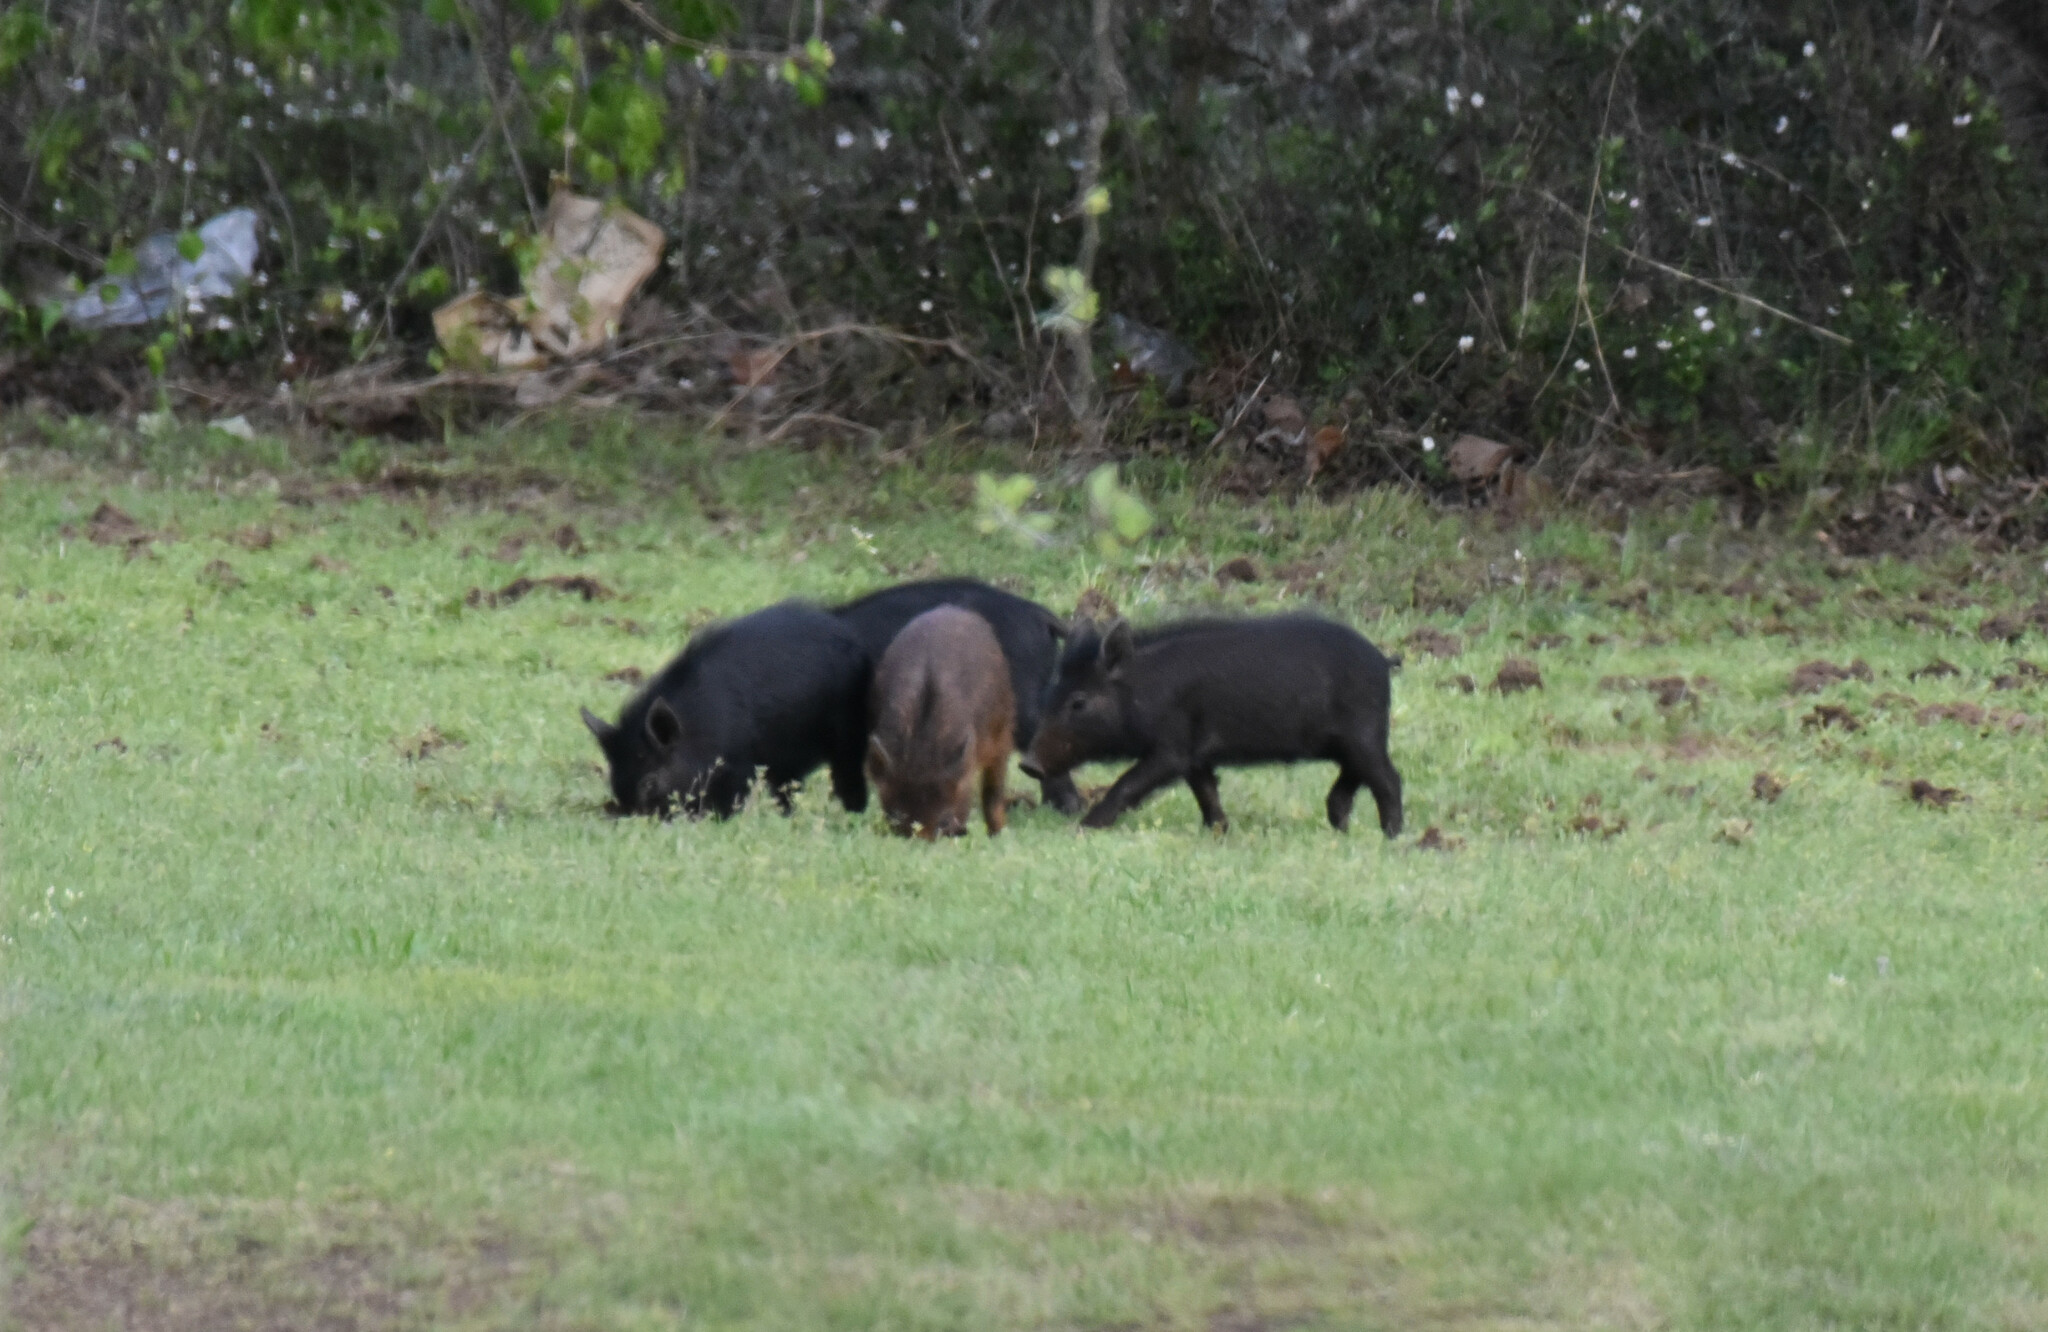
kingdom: Animalia
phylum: Chordata
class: Mammalia
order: Artiodactyla
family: Suidae
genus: Sus
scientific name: Sus scrofa
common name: Wild boar
